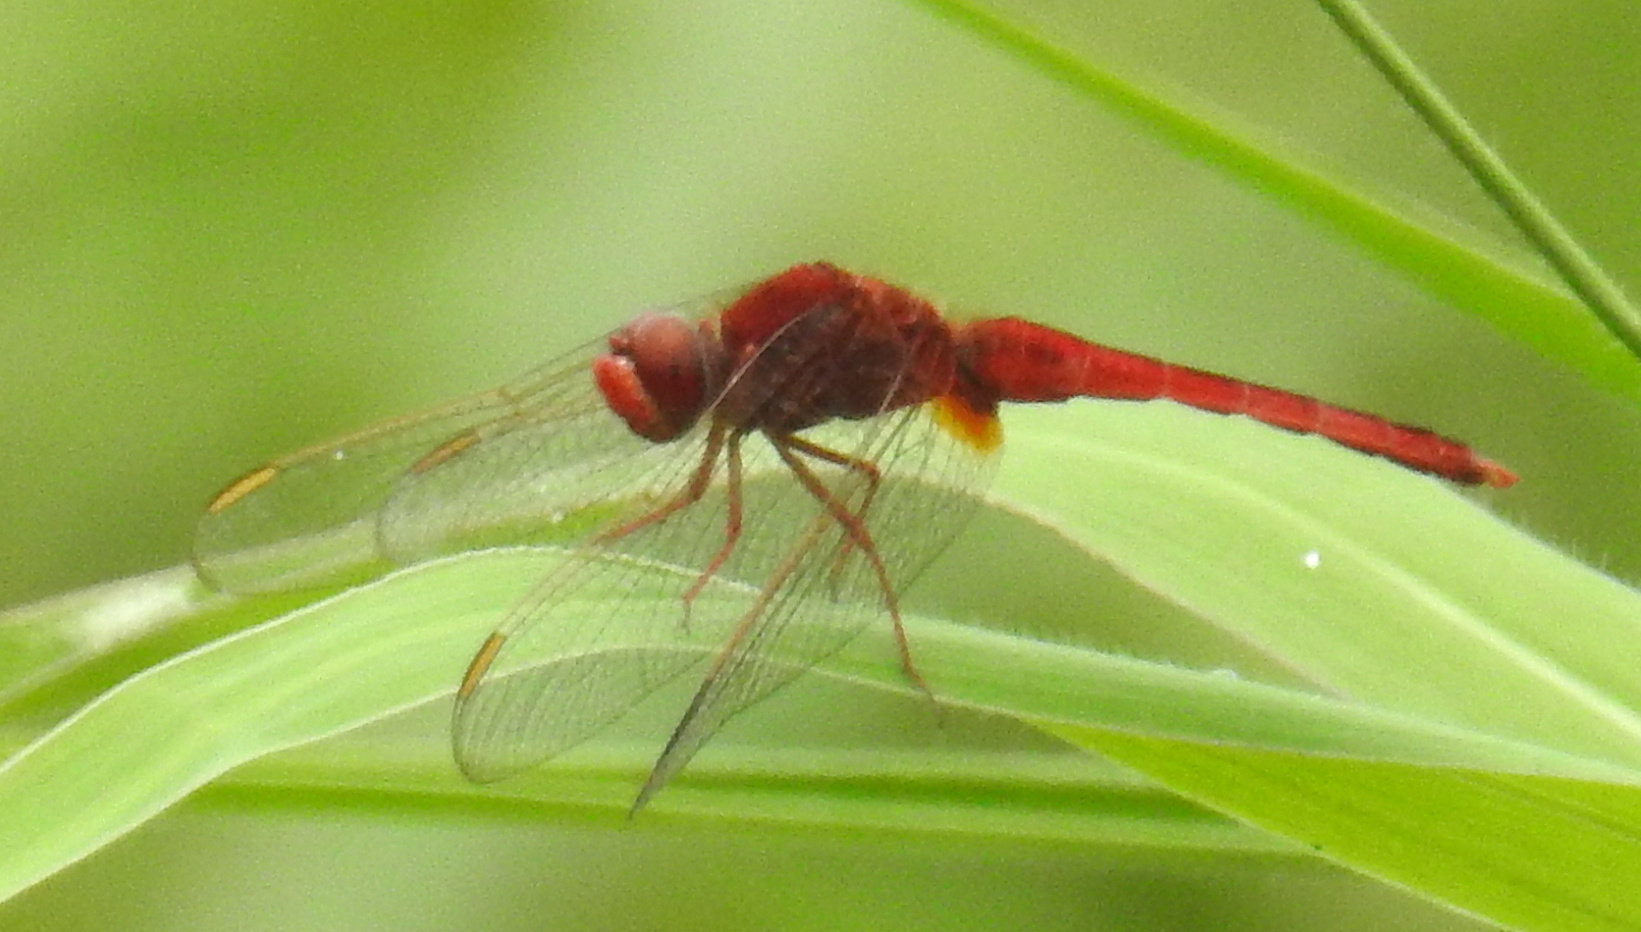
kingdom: Animalia
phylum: Arthropoda
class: Insecta
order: Odonata
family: Libellulidae
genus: Crocothemis
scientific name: Crocothemis servilia
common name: Scarlet skimmer
